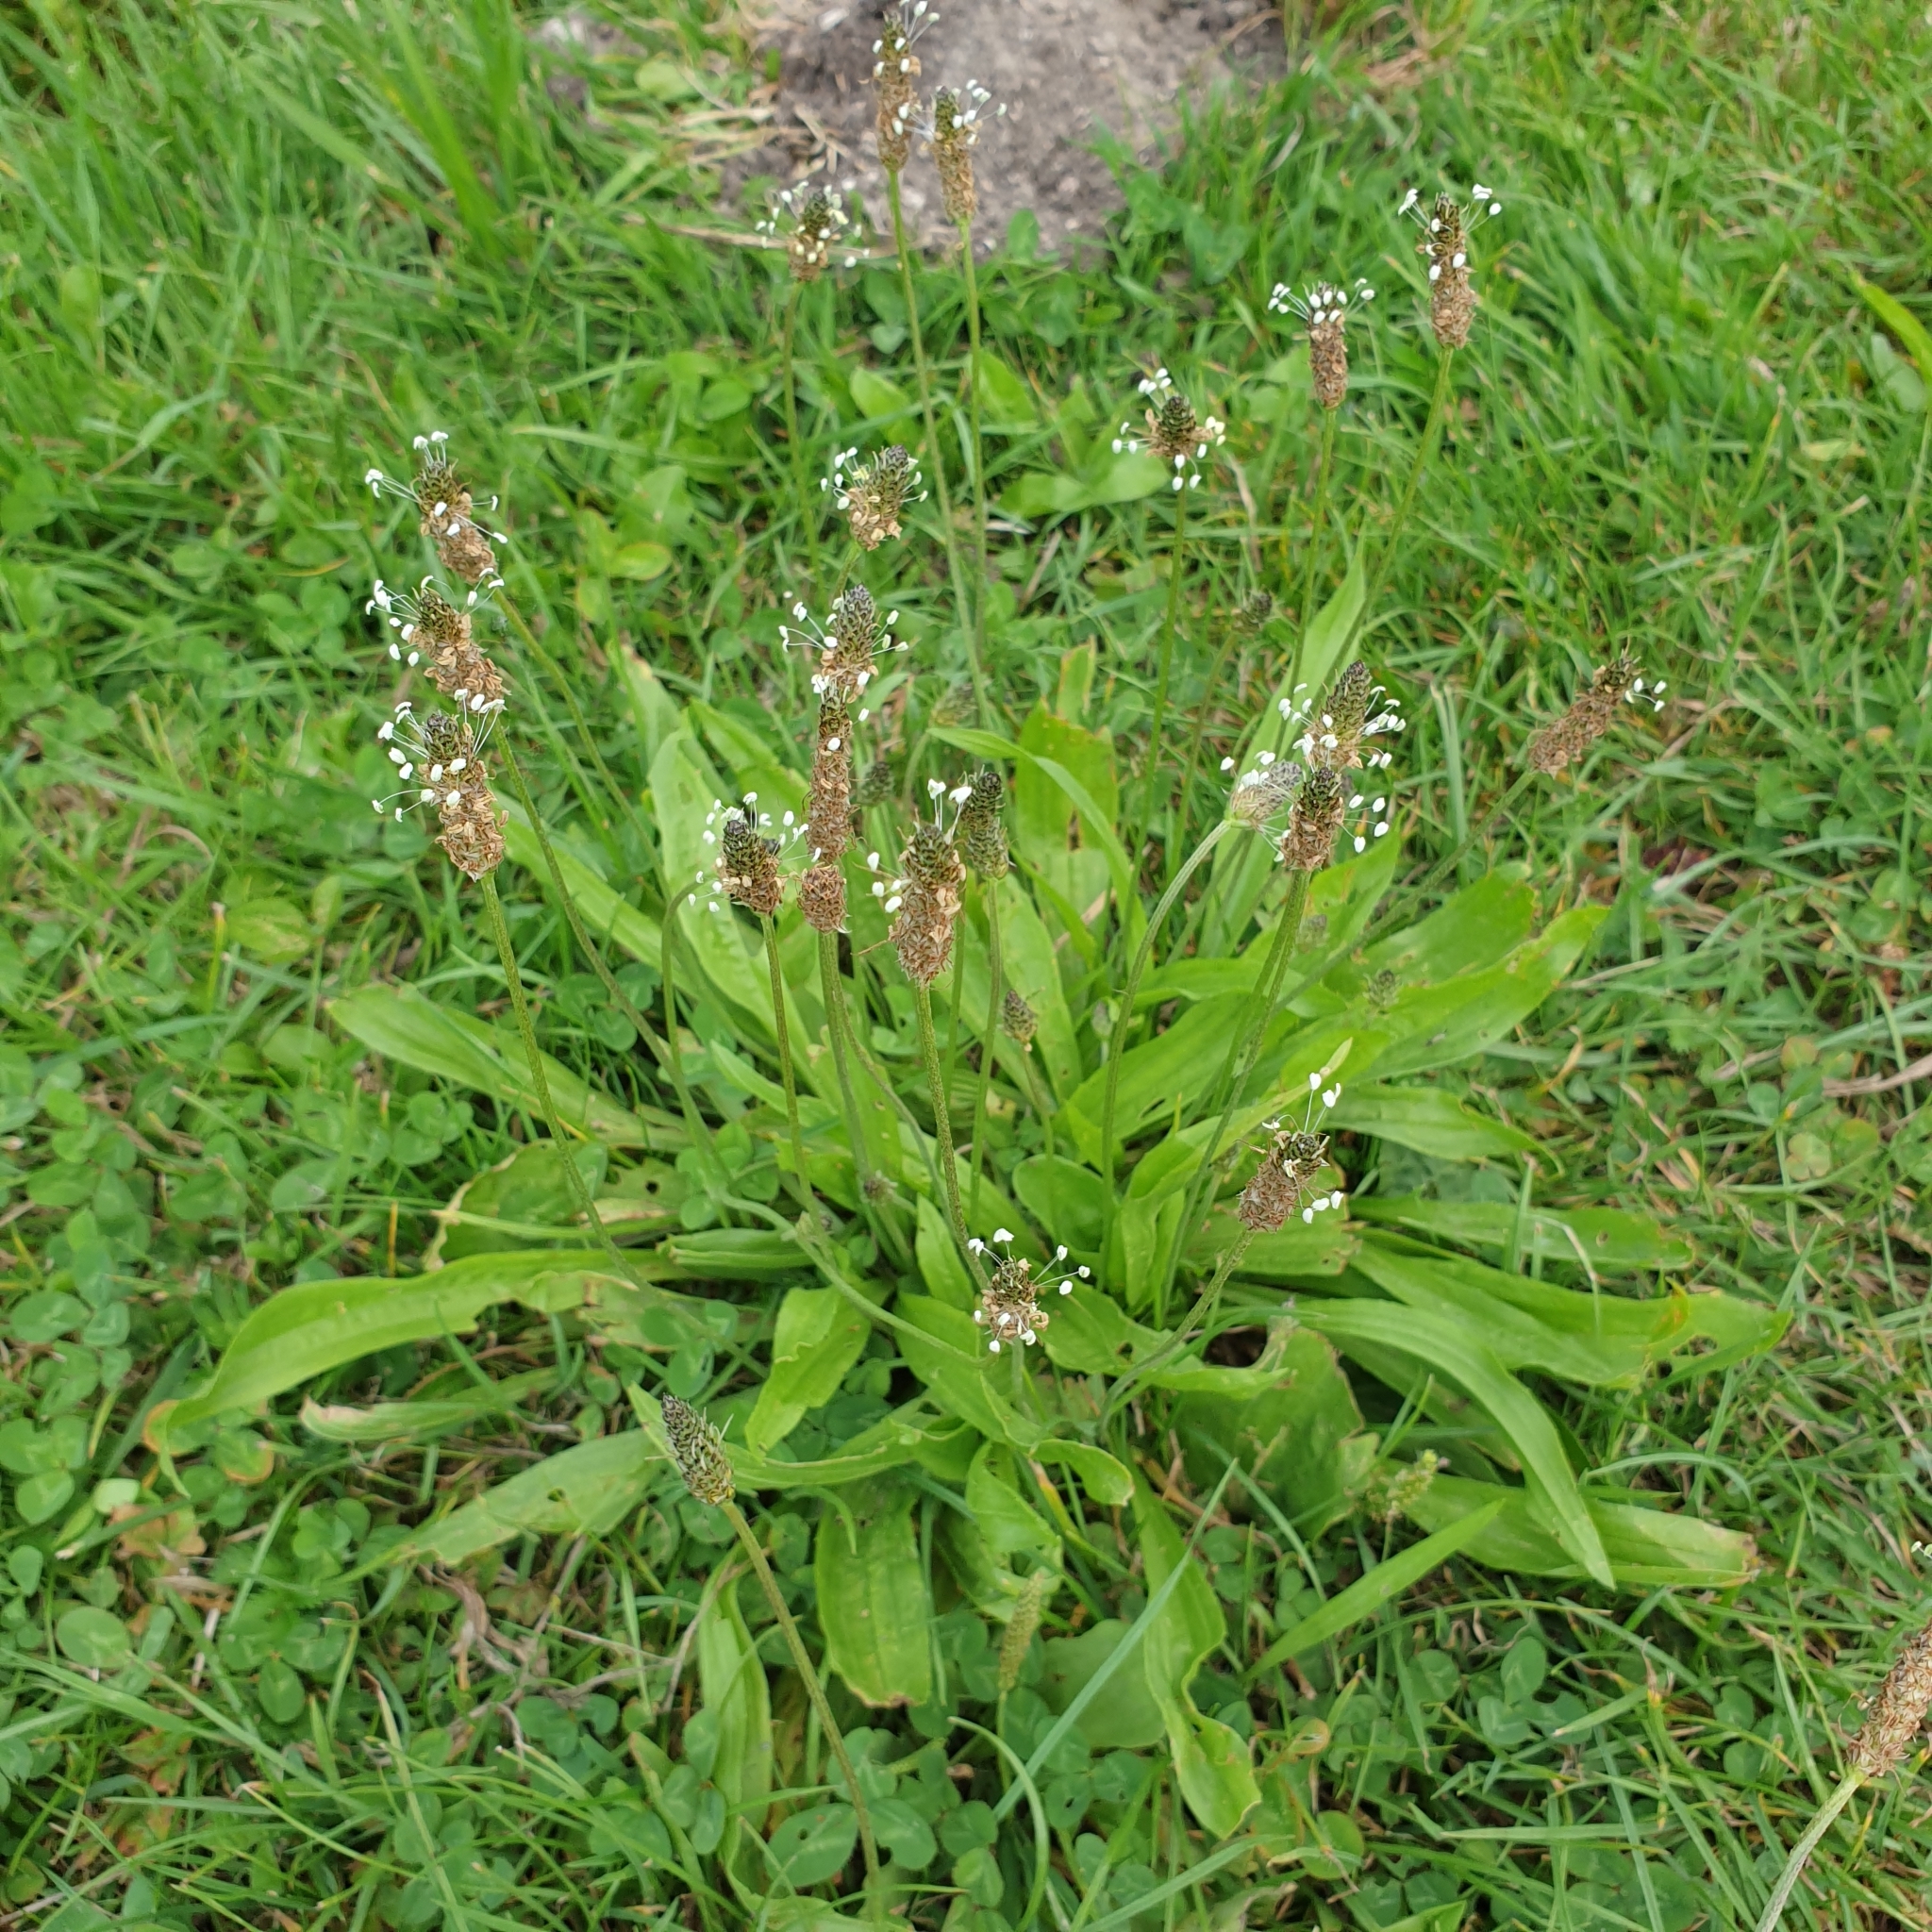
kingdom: Plantae
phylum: Tracheophyta
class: Magnoliopsida
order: Lamiales
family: Plantaginaceae
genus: Plantago
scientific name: Plantago lanceolata
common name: Ribwort plantain
